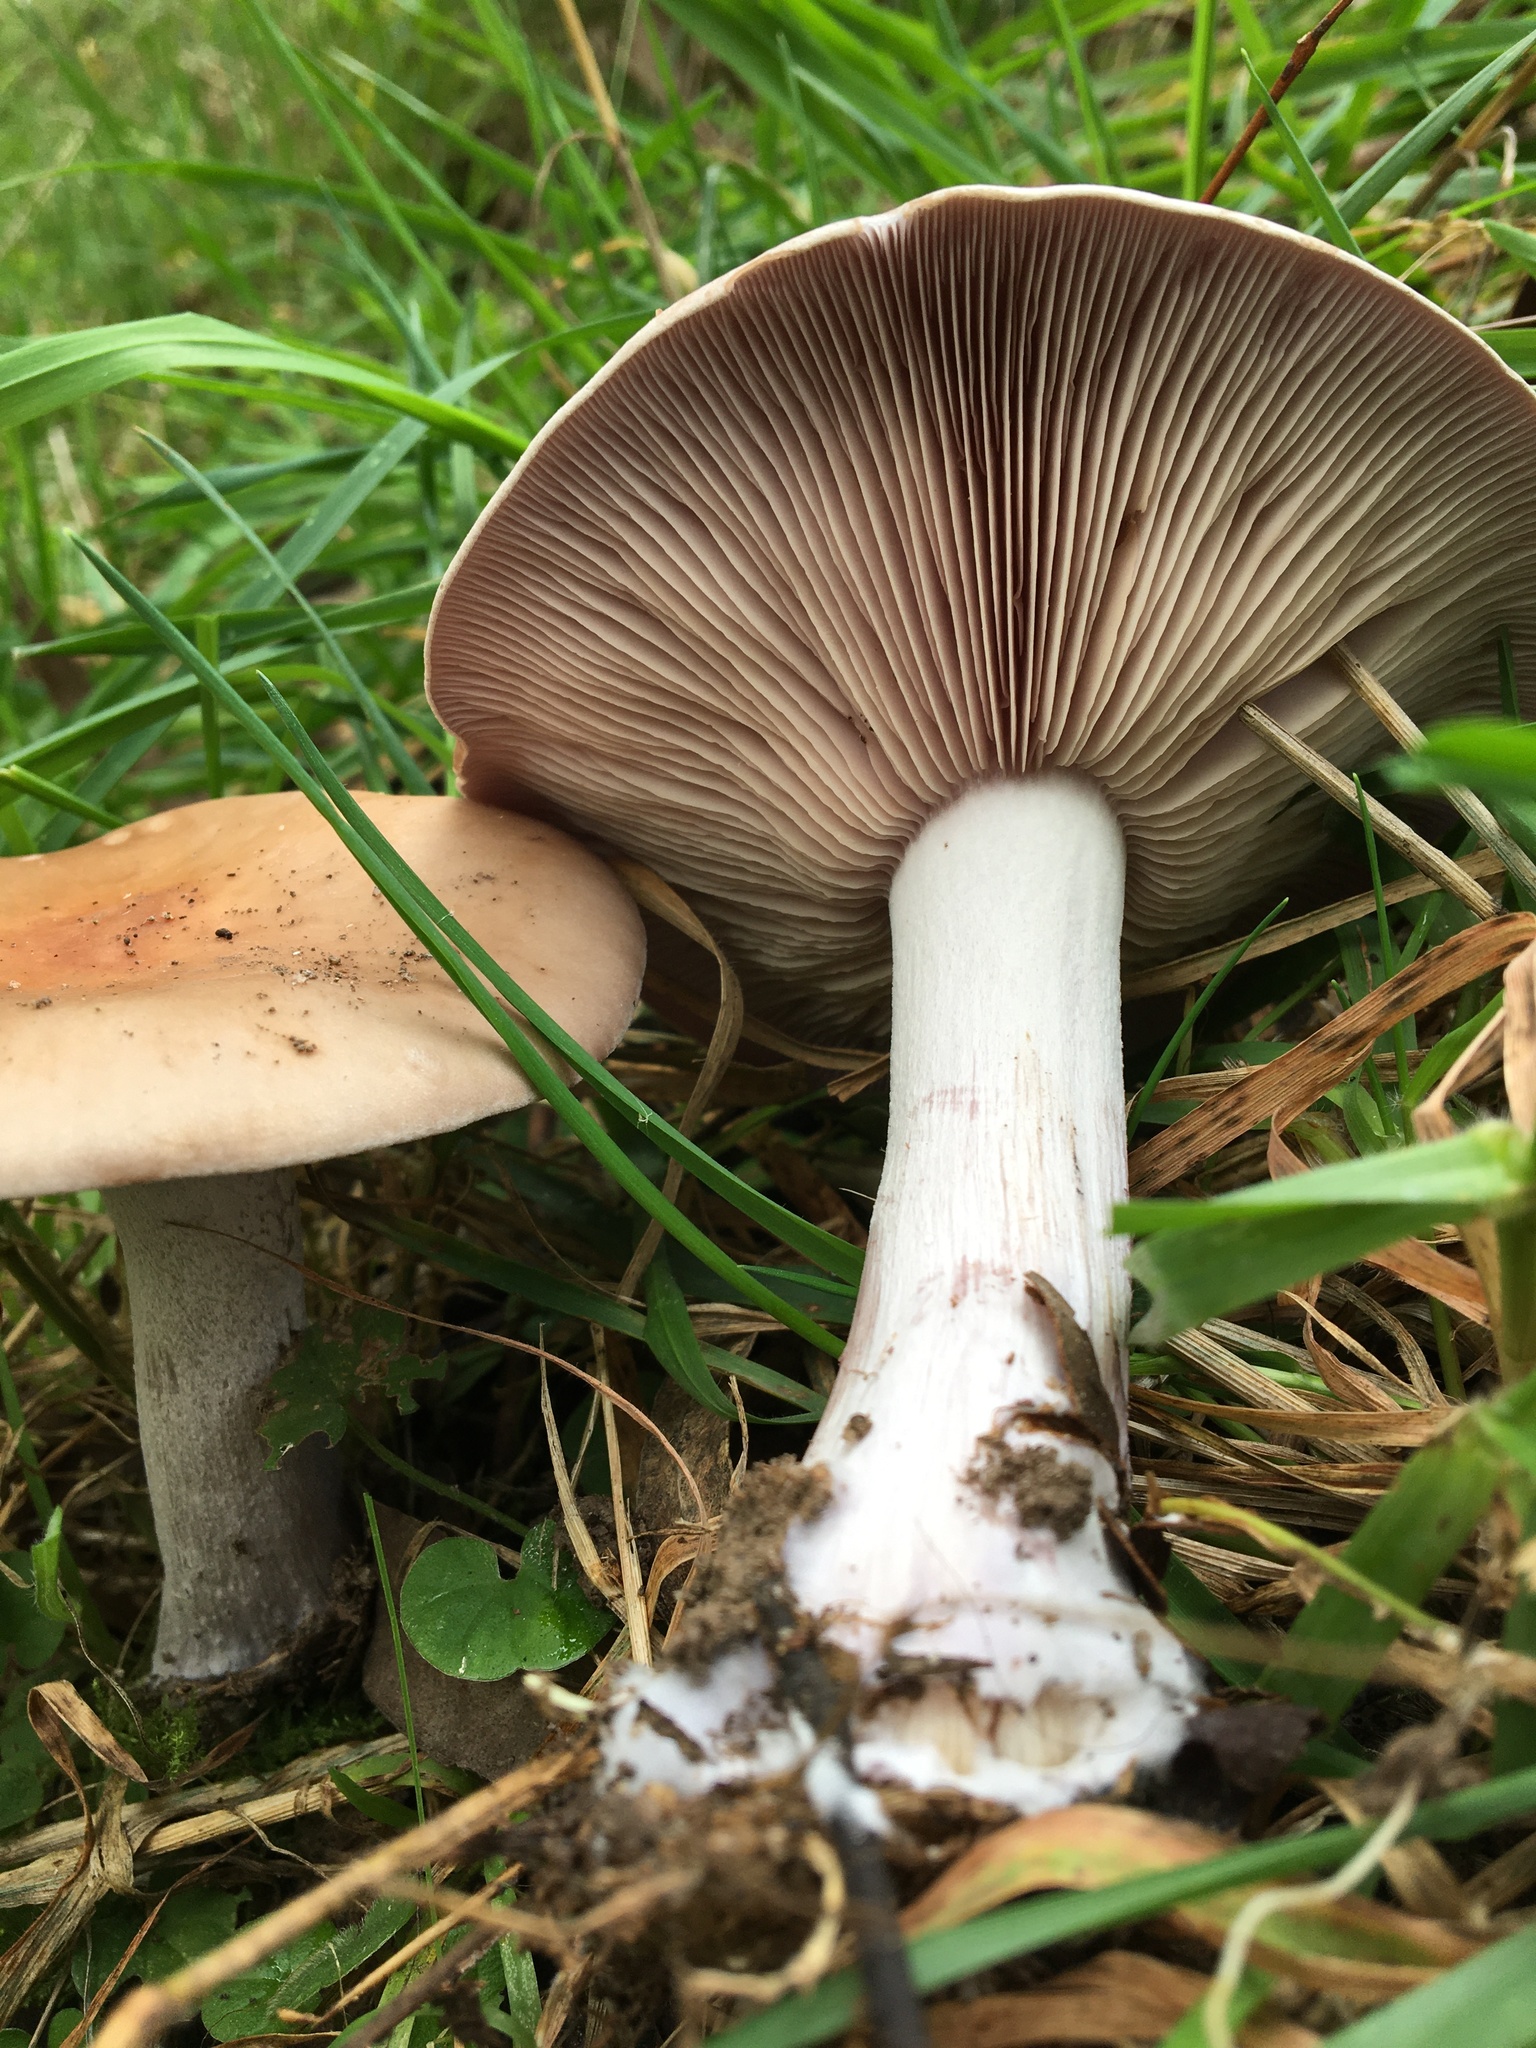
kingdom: Fungi
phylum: Basidiomycota
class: Agaricomycetes
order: Agaricales
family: Tricholomataceae
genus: Collybia
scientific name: Collybia
